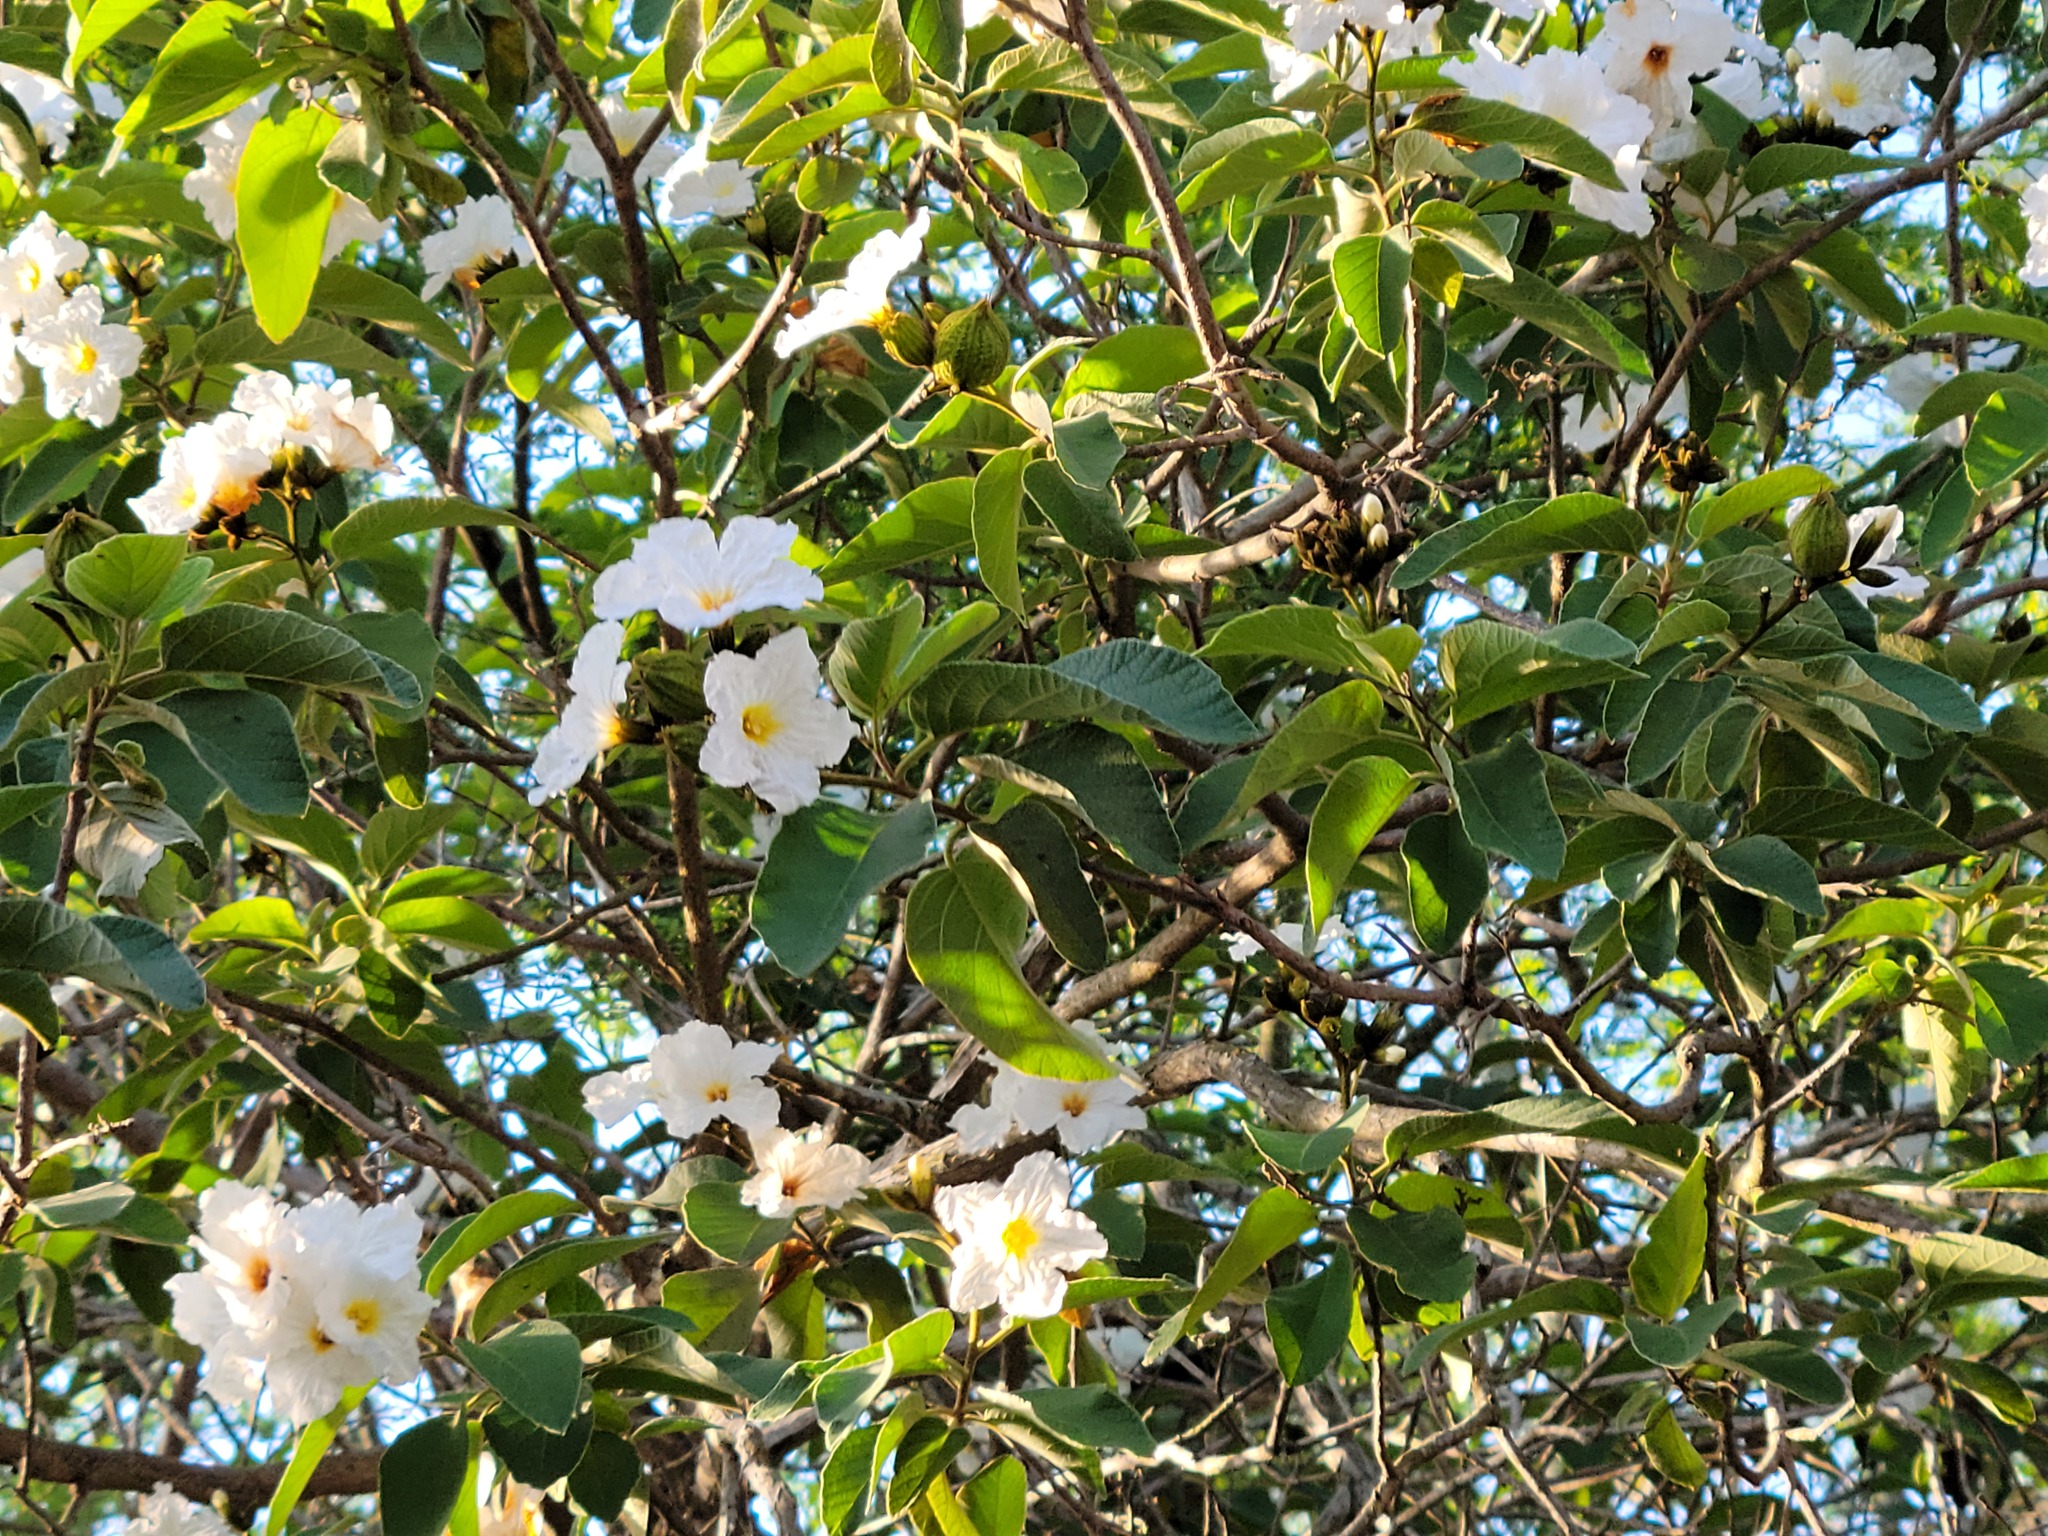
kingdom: Plantae
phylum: Tracheophyta
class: Magnoliopsida
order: Boraginales
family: Cordiaceae
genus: Cordia
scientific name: Cordia boissieri
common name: Mexican-olive
